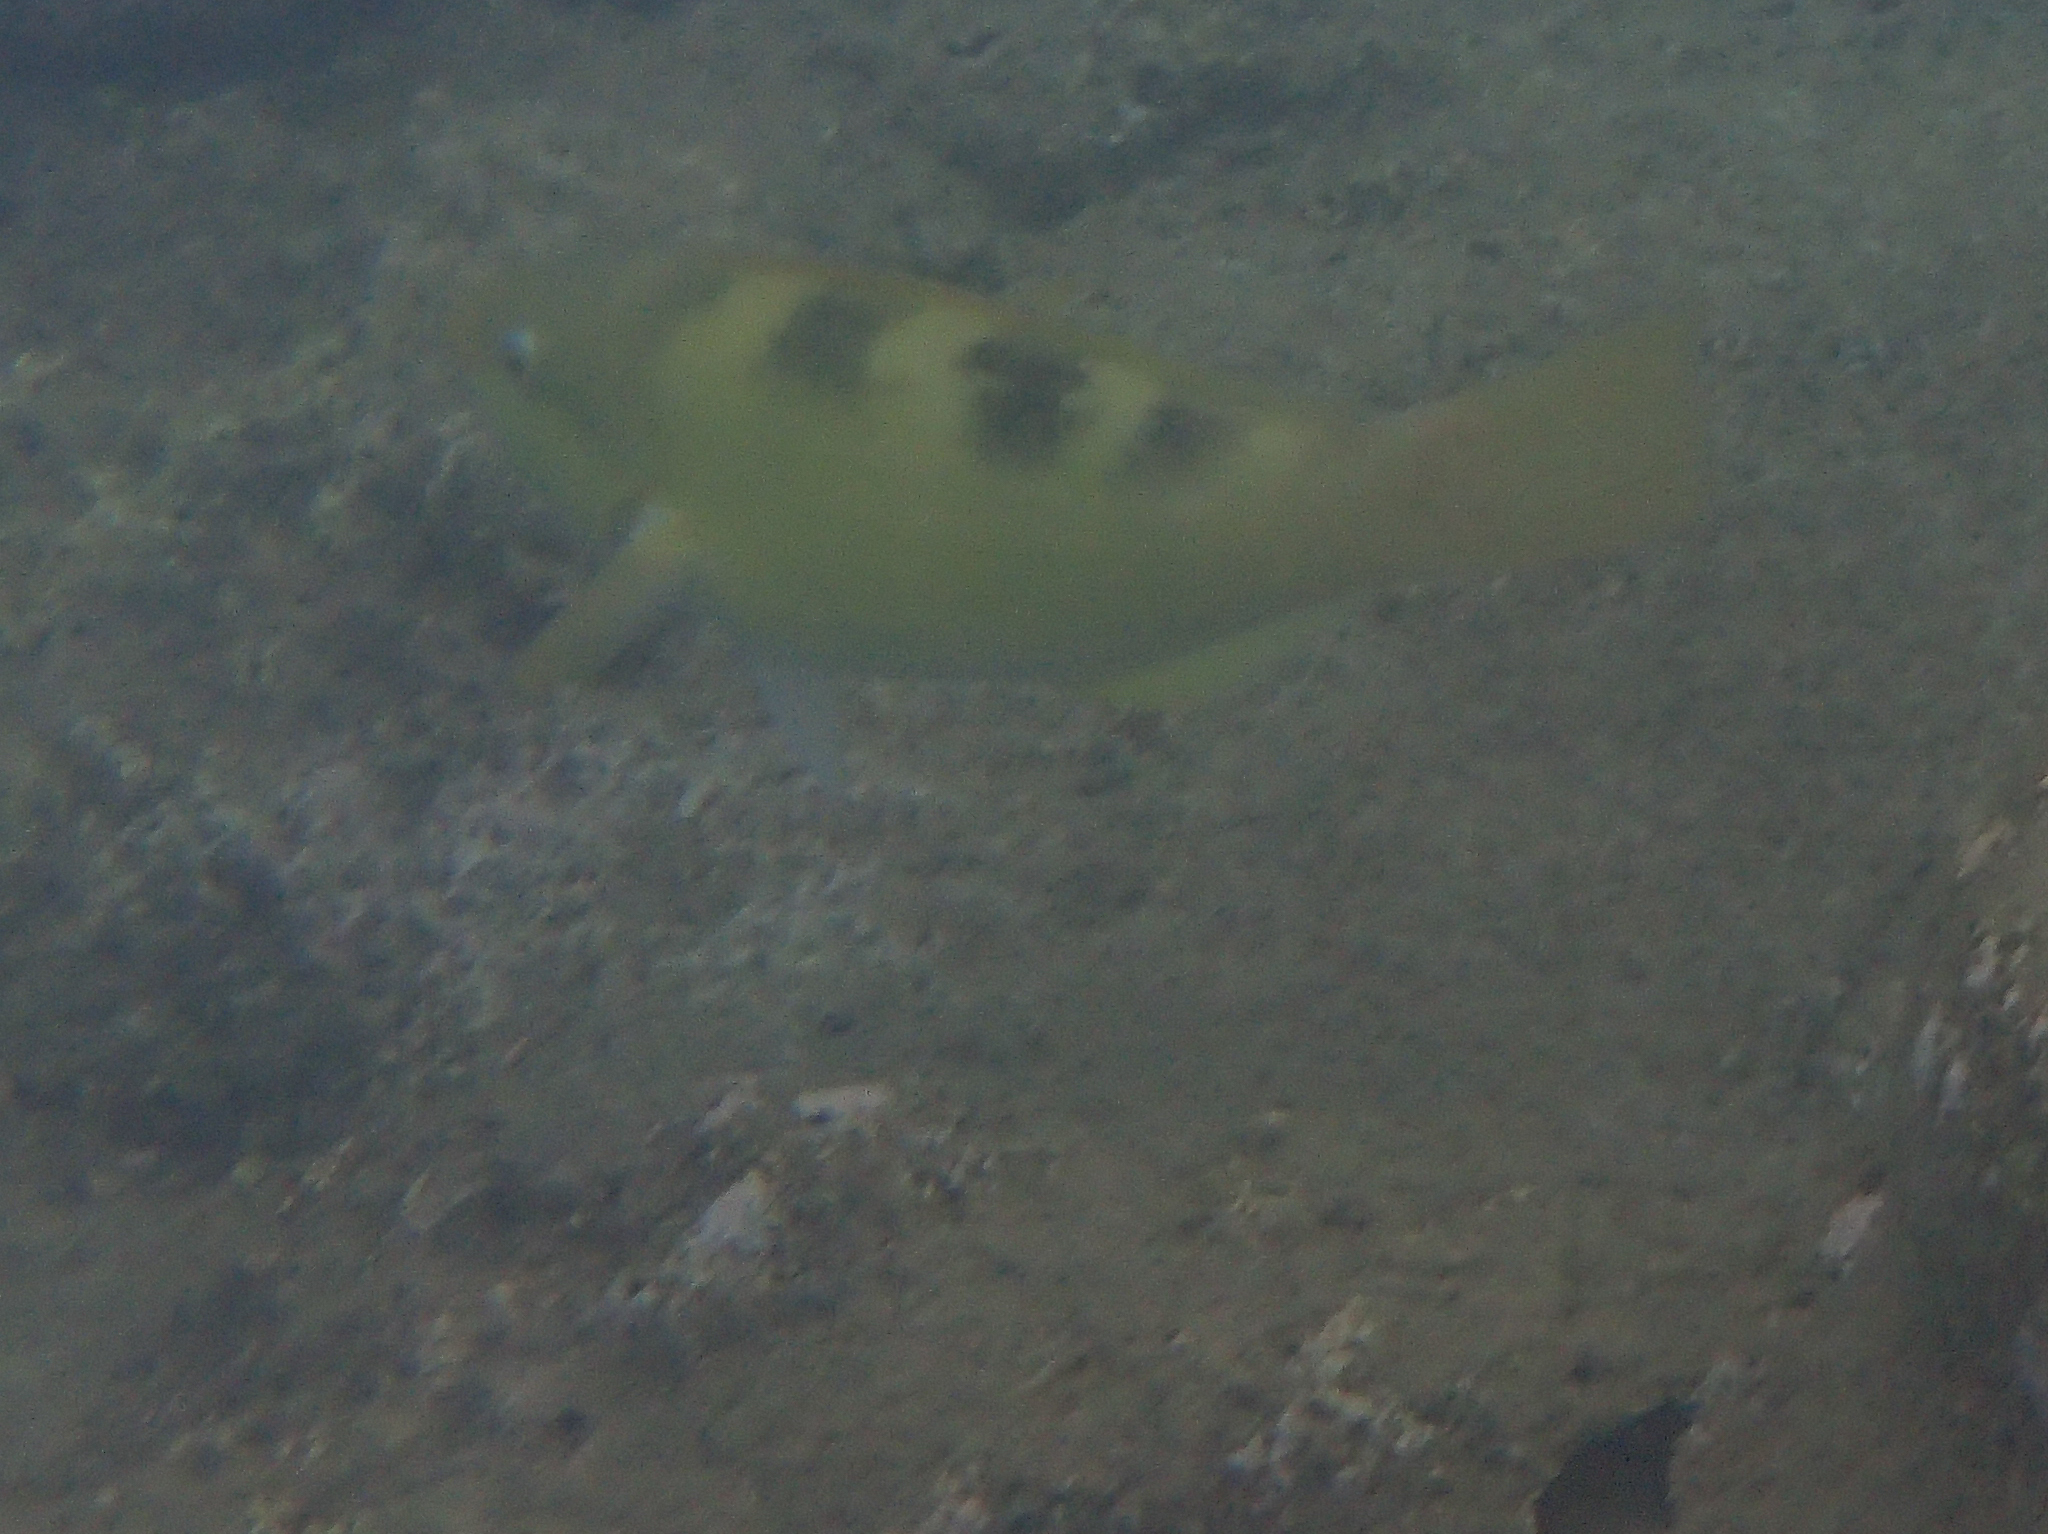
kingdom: Animalia
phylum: Chordata
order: Perciformes
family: Scaridae
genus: Scarus
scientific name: Scarus dimidiatus
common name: Yellowbarred parrotfish
